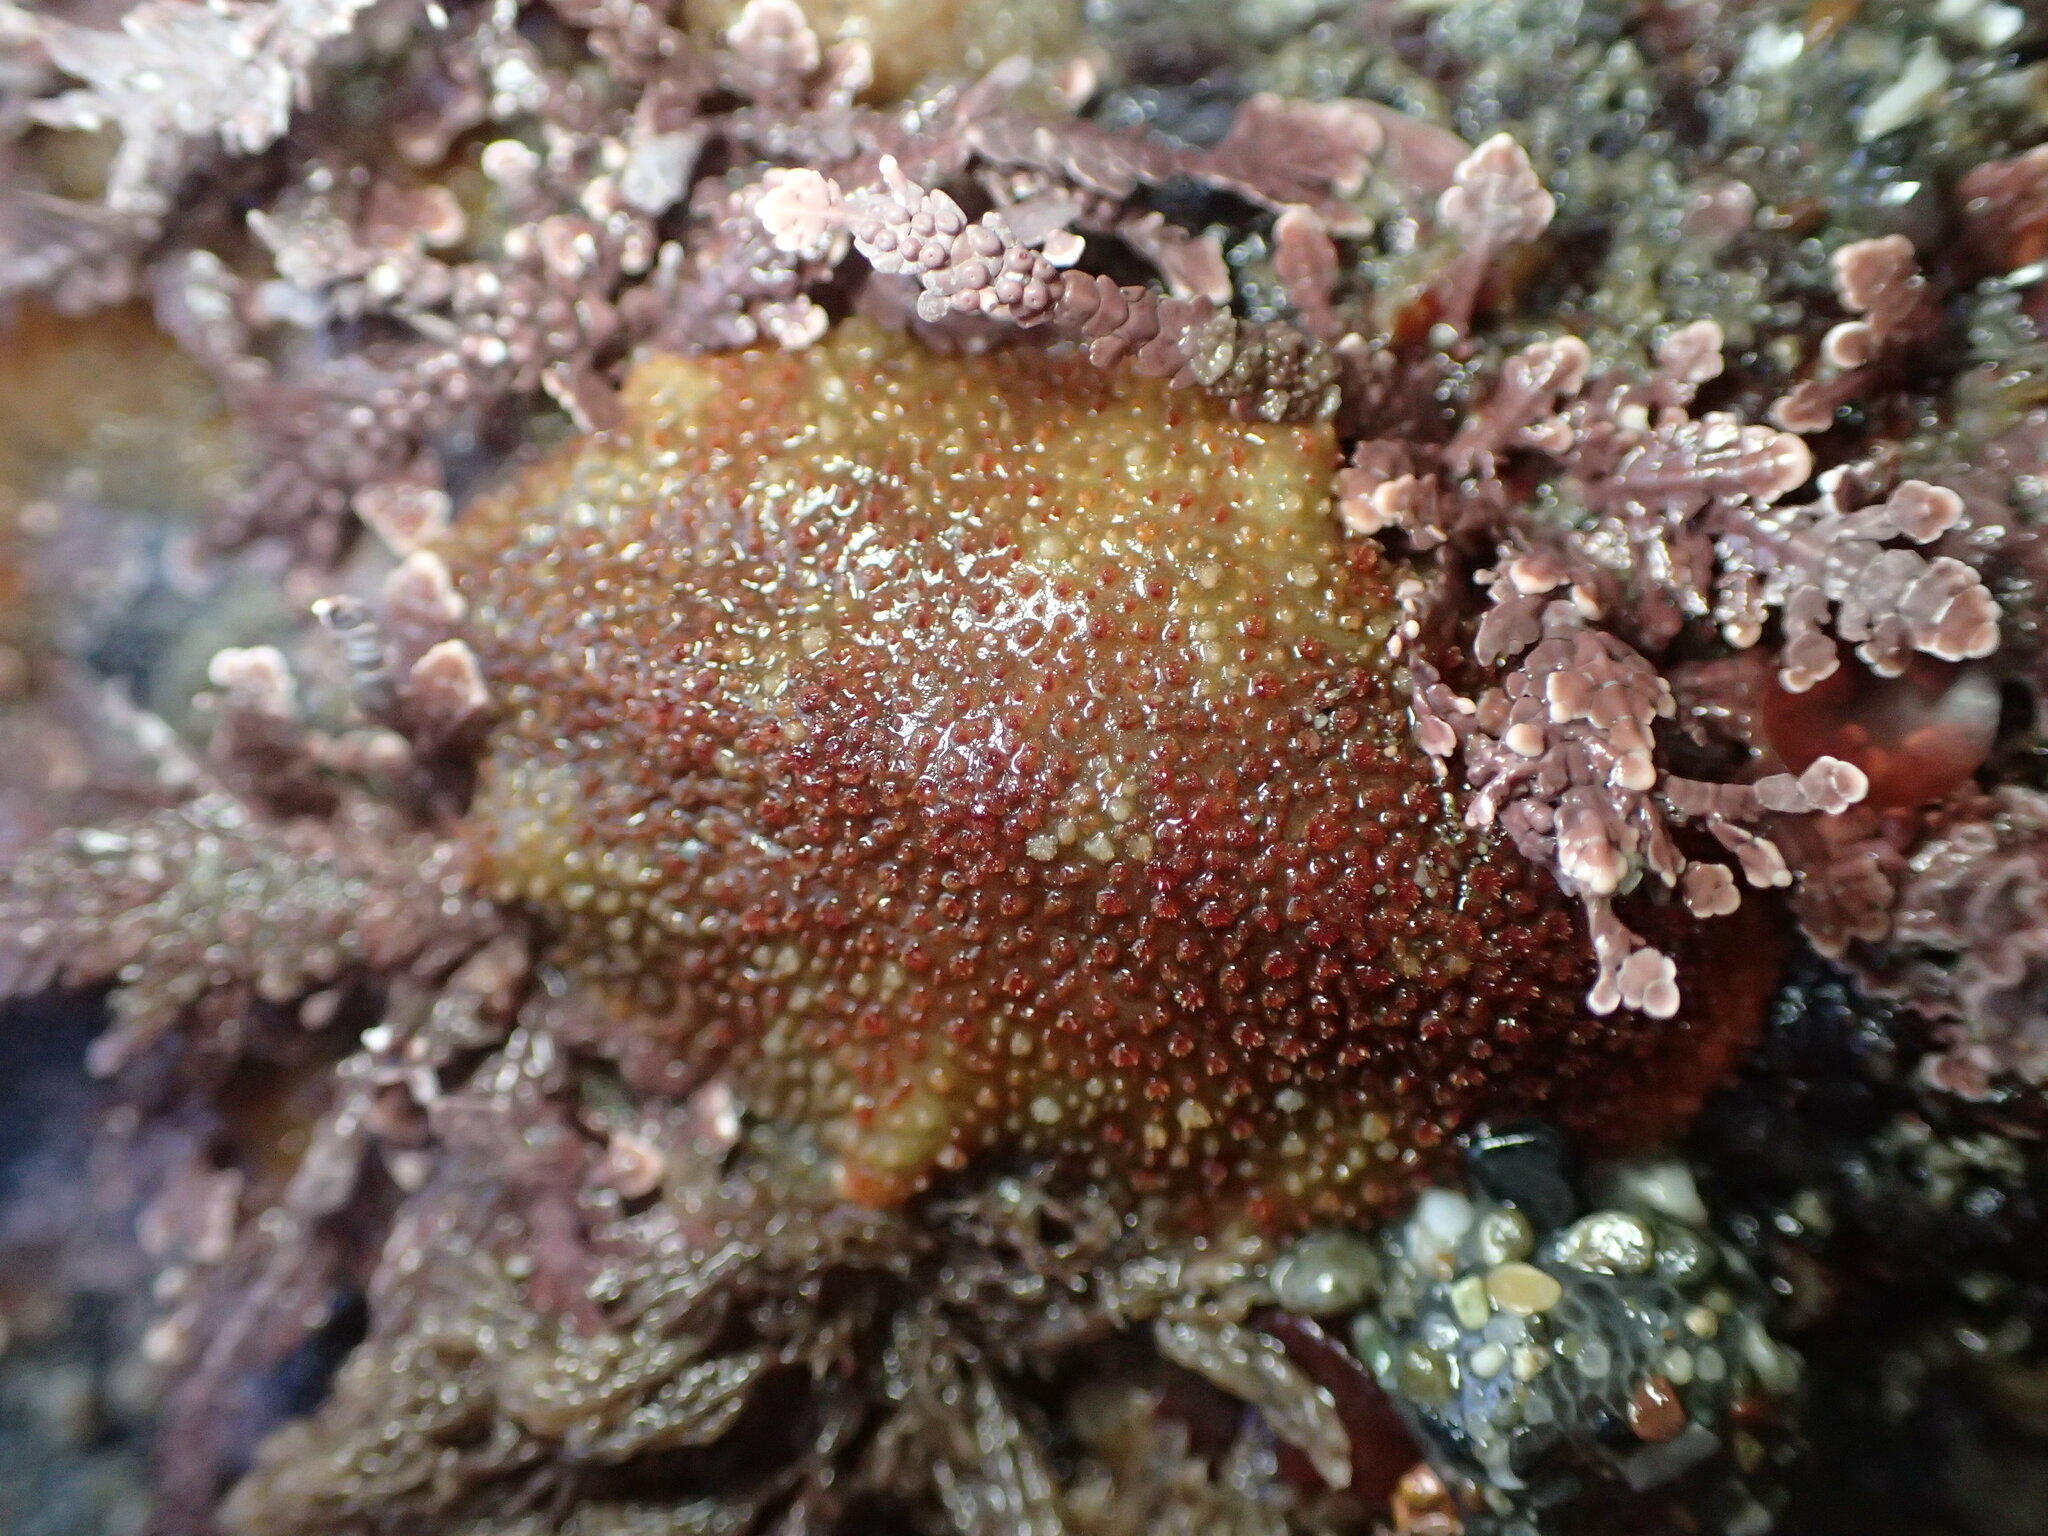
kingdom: Animalia
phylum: Mollusca
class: Polyplacophora
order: Chitonida
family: Acanthochitonidae
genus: Cryptochiton
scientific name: Cryptochiton stelleri
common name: Giant pacific chiton
